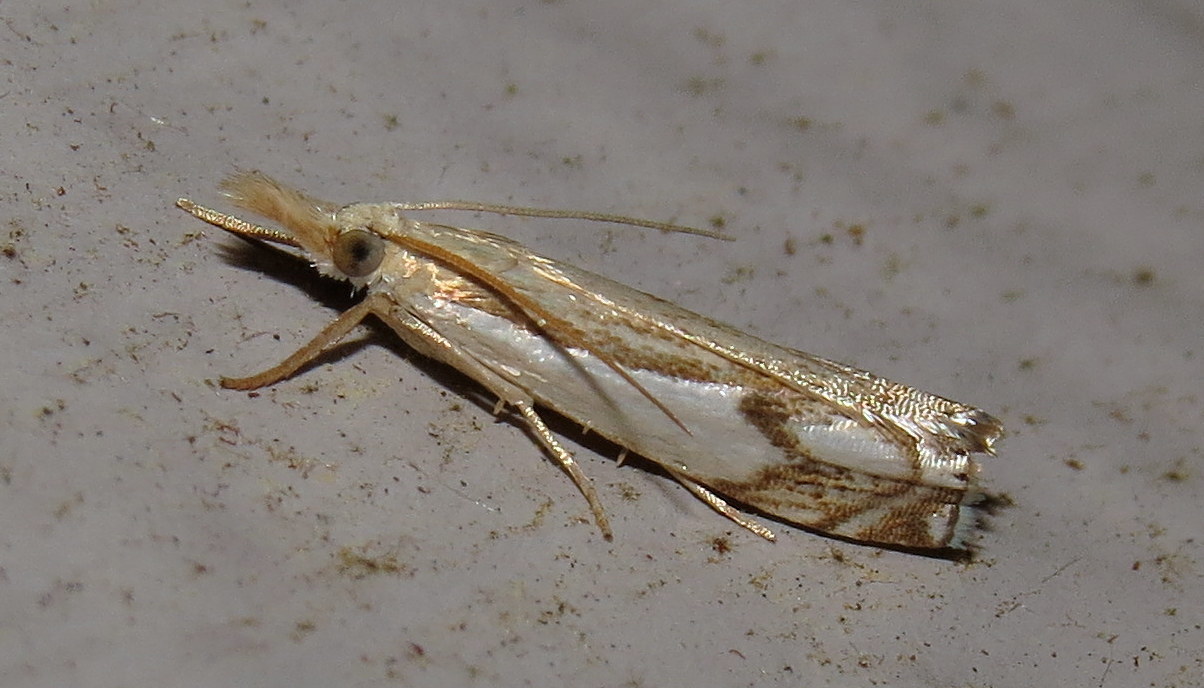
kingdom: Animalia
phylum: Arthropoda
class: Insecta
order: Lepidoptera
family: Crambidae
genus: Crambus
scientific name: Crambus agitatellus
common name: Double-banded grass-veneer
